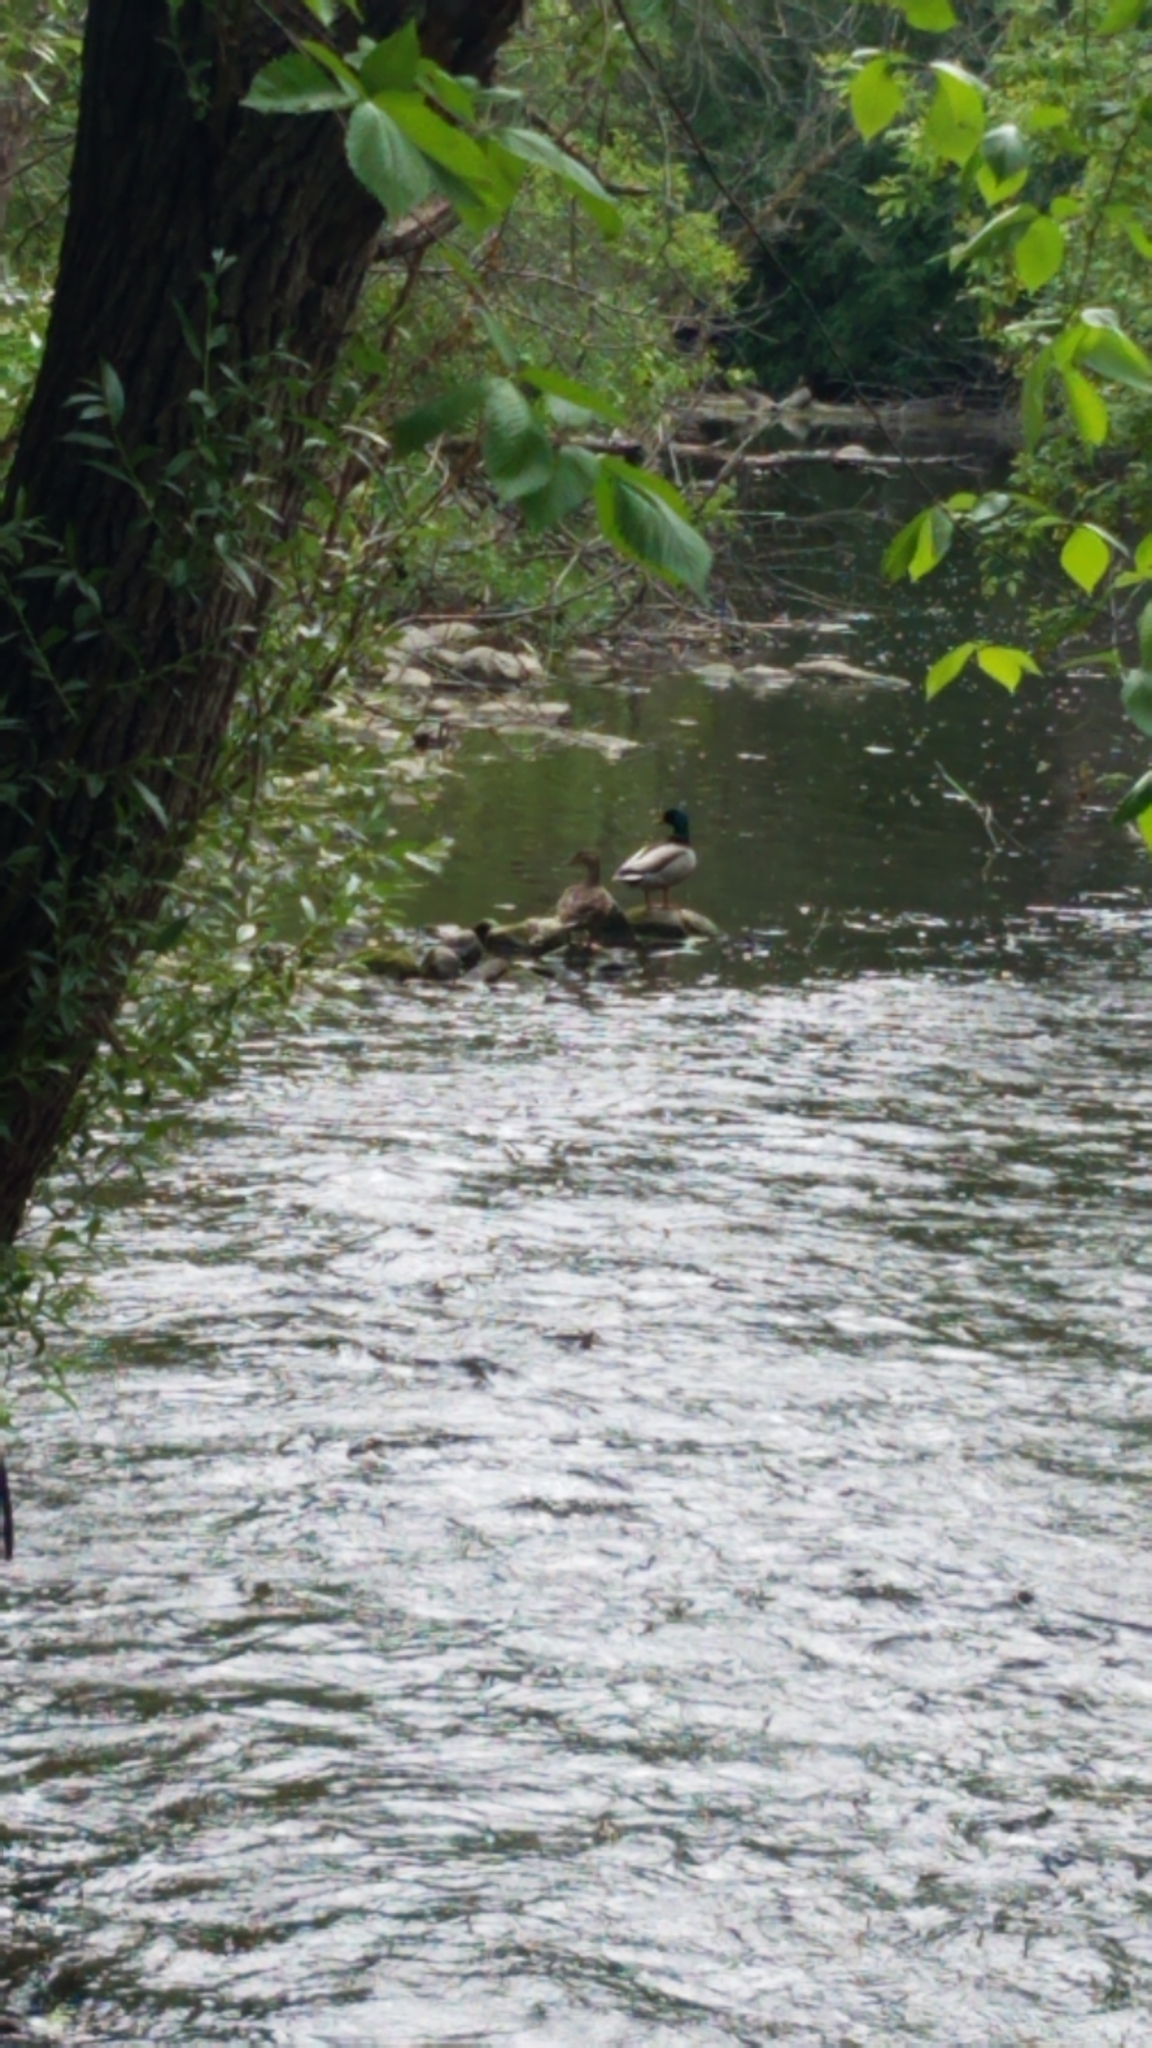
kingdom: Animalia
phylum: Chordata
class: Aves
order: Anseriformes
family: Anatidae
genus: Anas
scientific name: Anas platyrhynchos
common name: Mallard
